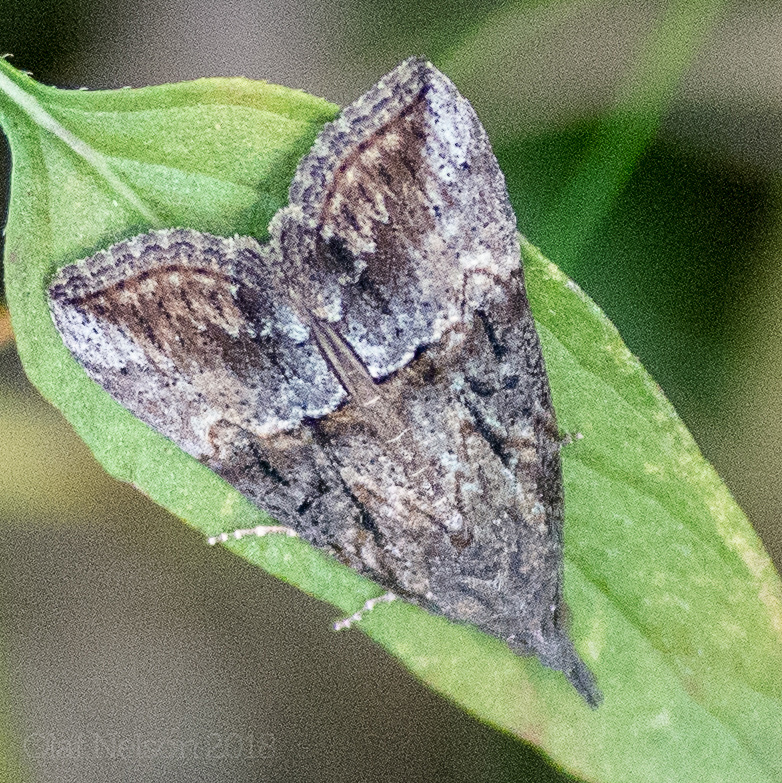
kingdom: Animalia
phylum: Arthropoda
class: Insecta
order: Lepidoptera
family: Erebidae
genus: Hypena
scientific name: Hypena scabra
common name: Green cloverworm
